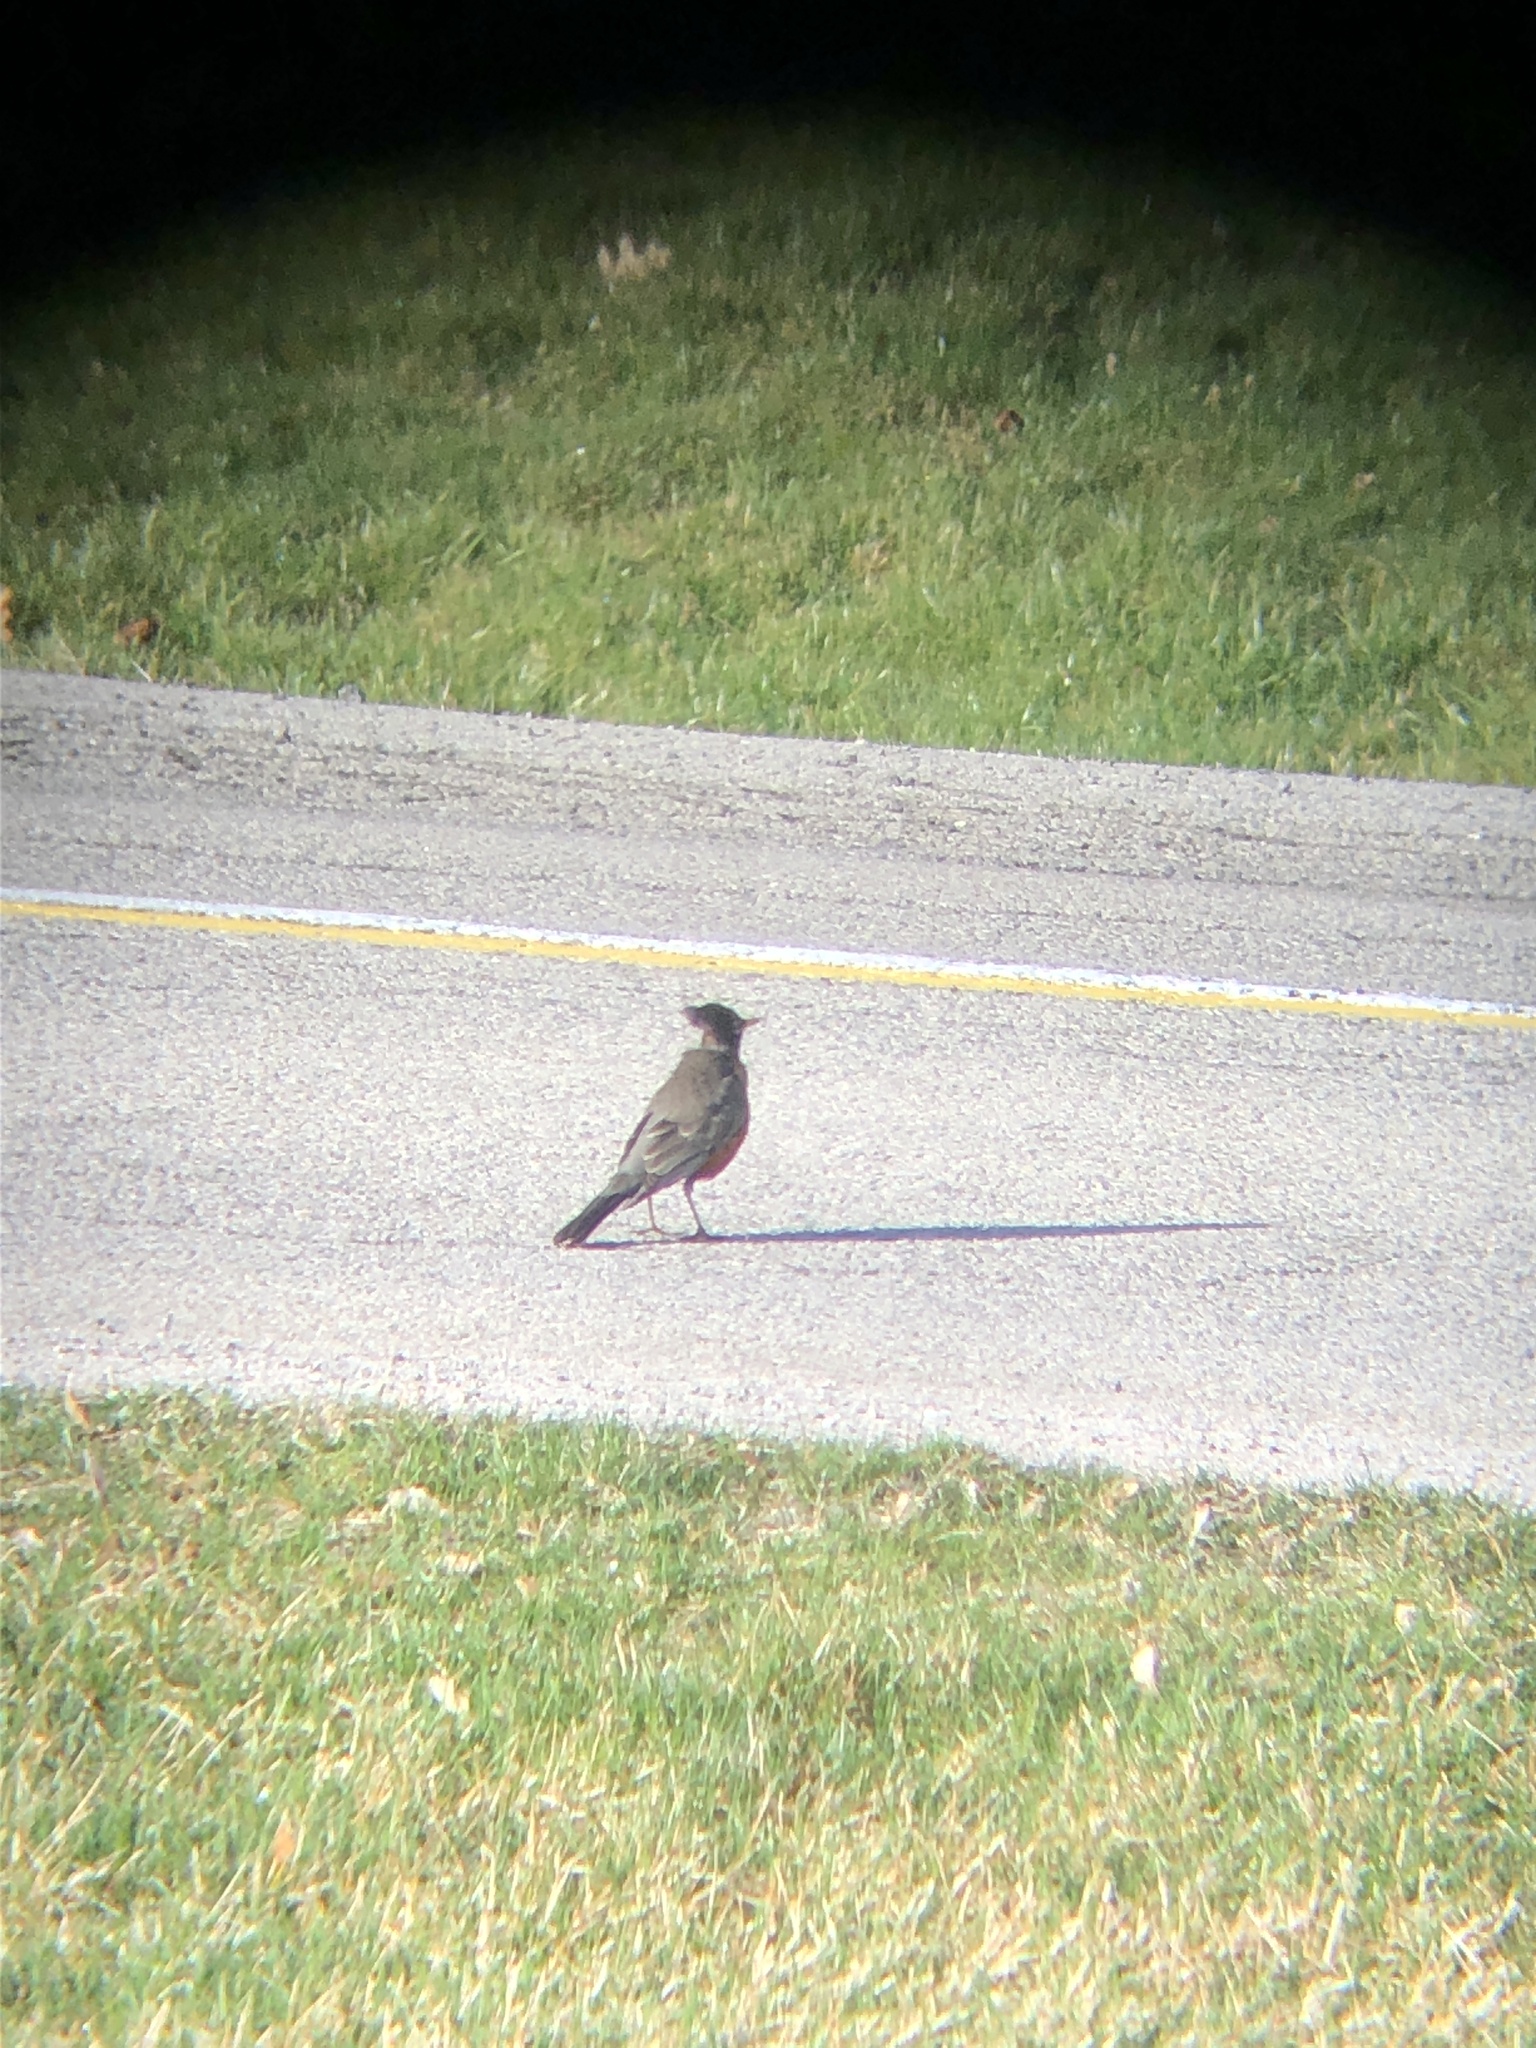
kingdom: Animalia
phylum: Chordata
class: Aves
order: Passeriformes
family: Turdidae
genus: Turdus
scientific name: Turdus migratorius
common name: American robin
